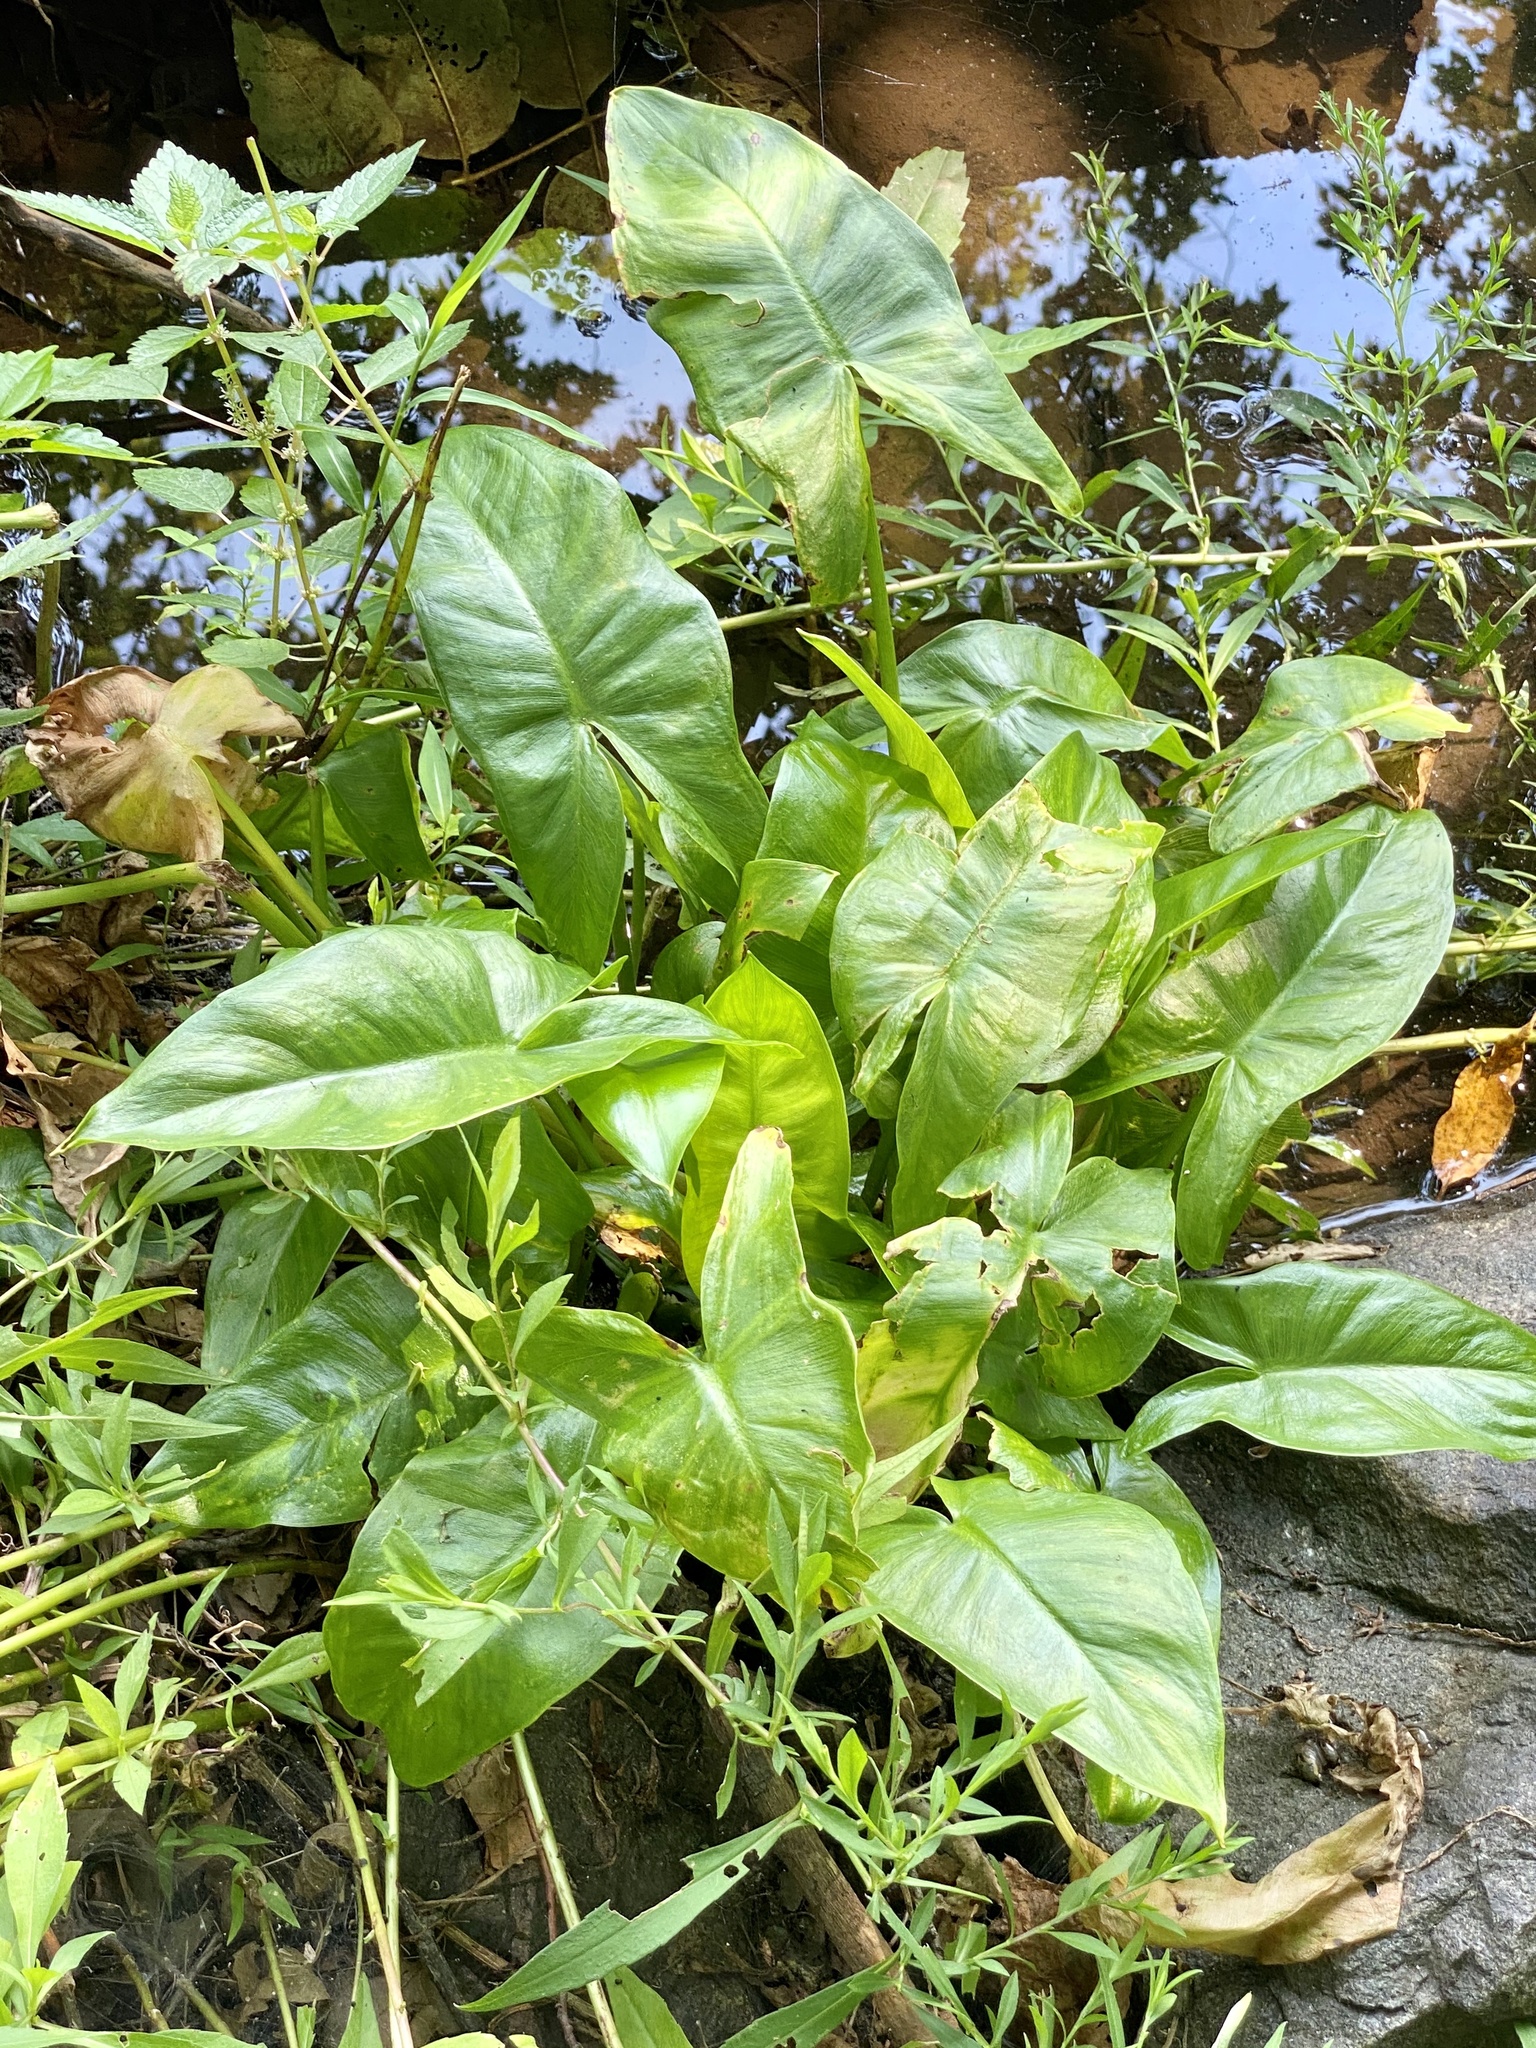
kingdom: Plantae
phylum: Tracheophyta
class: Liliopsida
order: Alismatales
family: Araceae
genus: Peltandra
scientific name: Peltandra virginica
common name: Arrow arum
